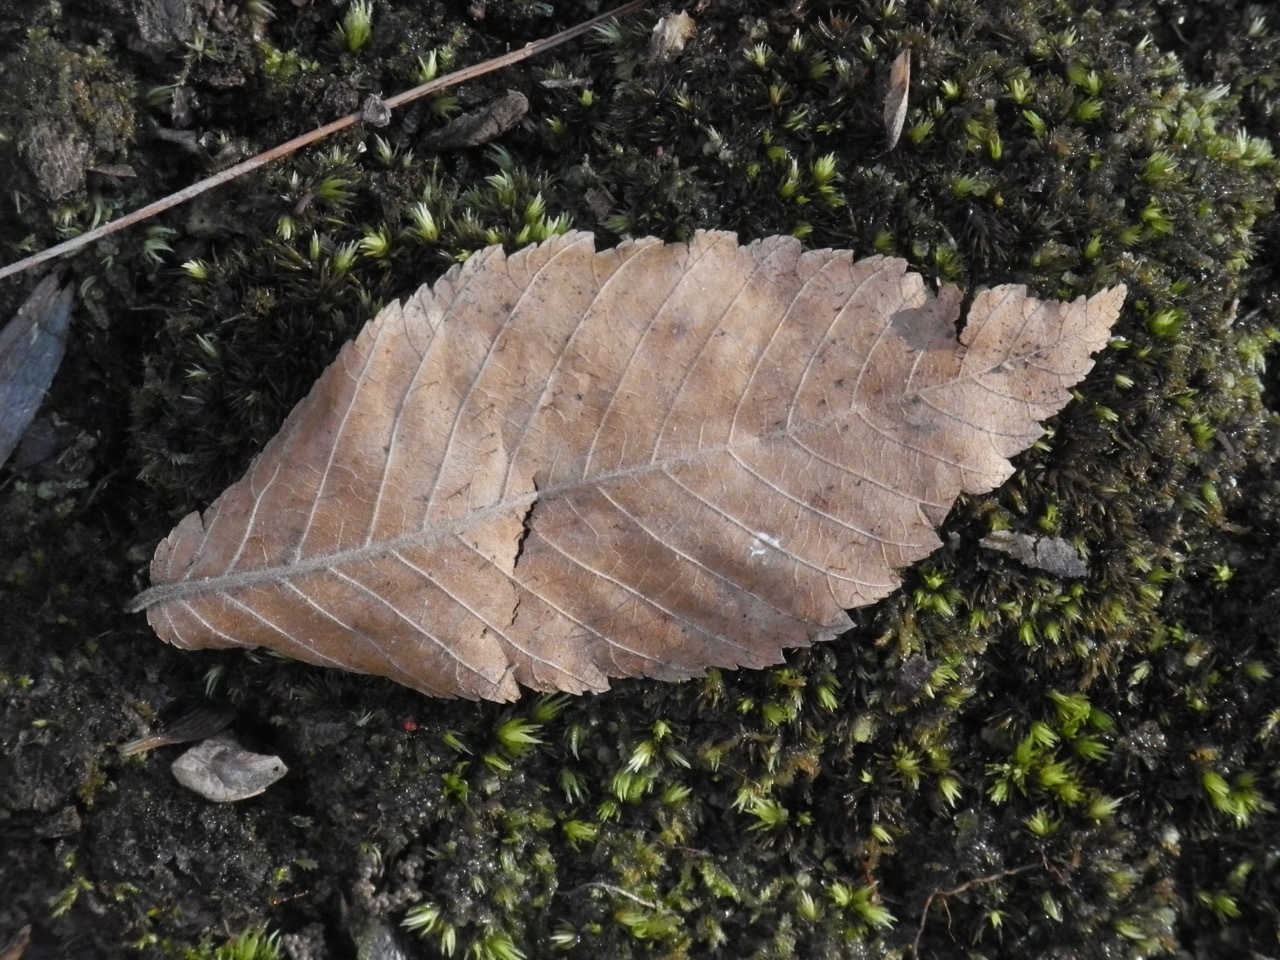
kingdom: Plantae
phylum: Tracheophyta
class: Magnoliopsida
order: Rosales
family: Ulmaceae
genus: Ulmus
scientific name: Ulmus alata
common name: Winged elm
